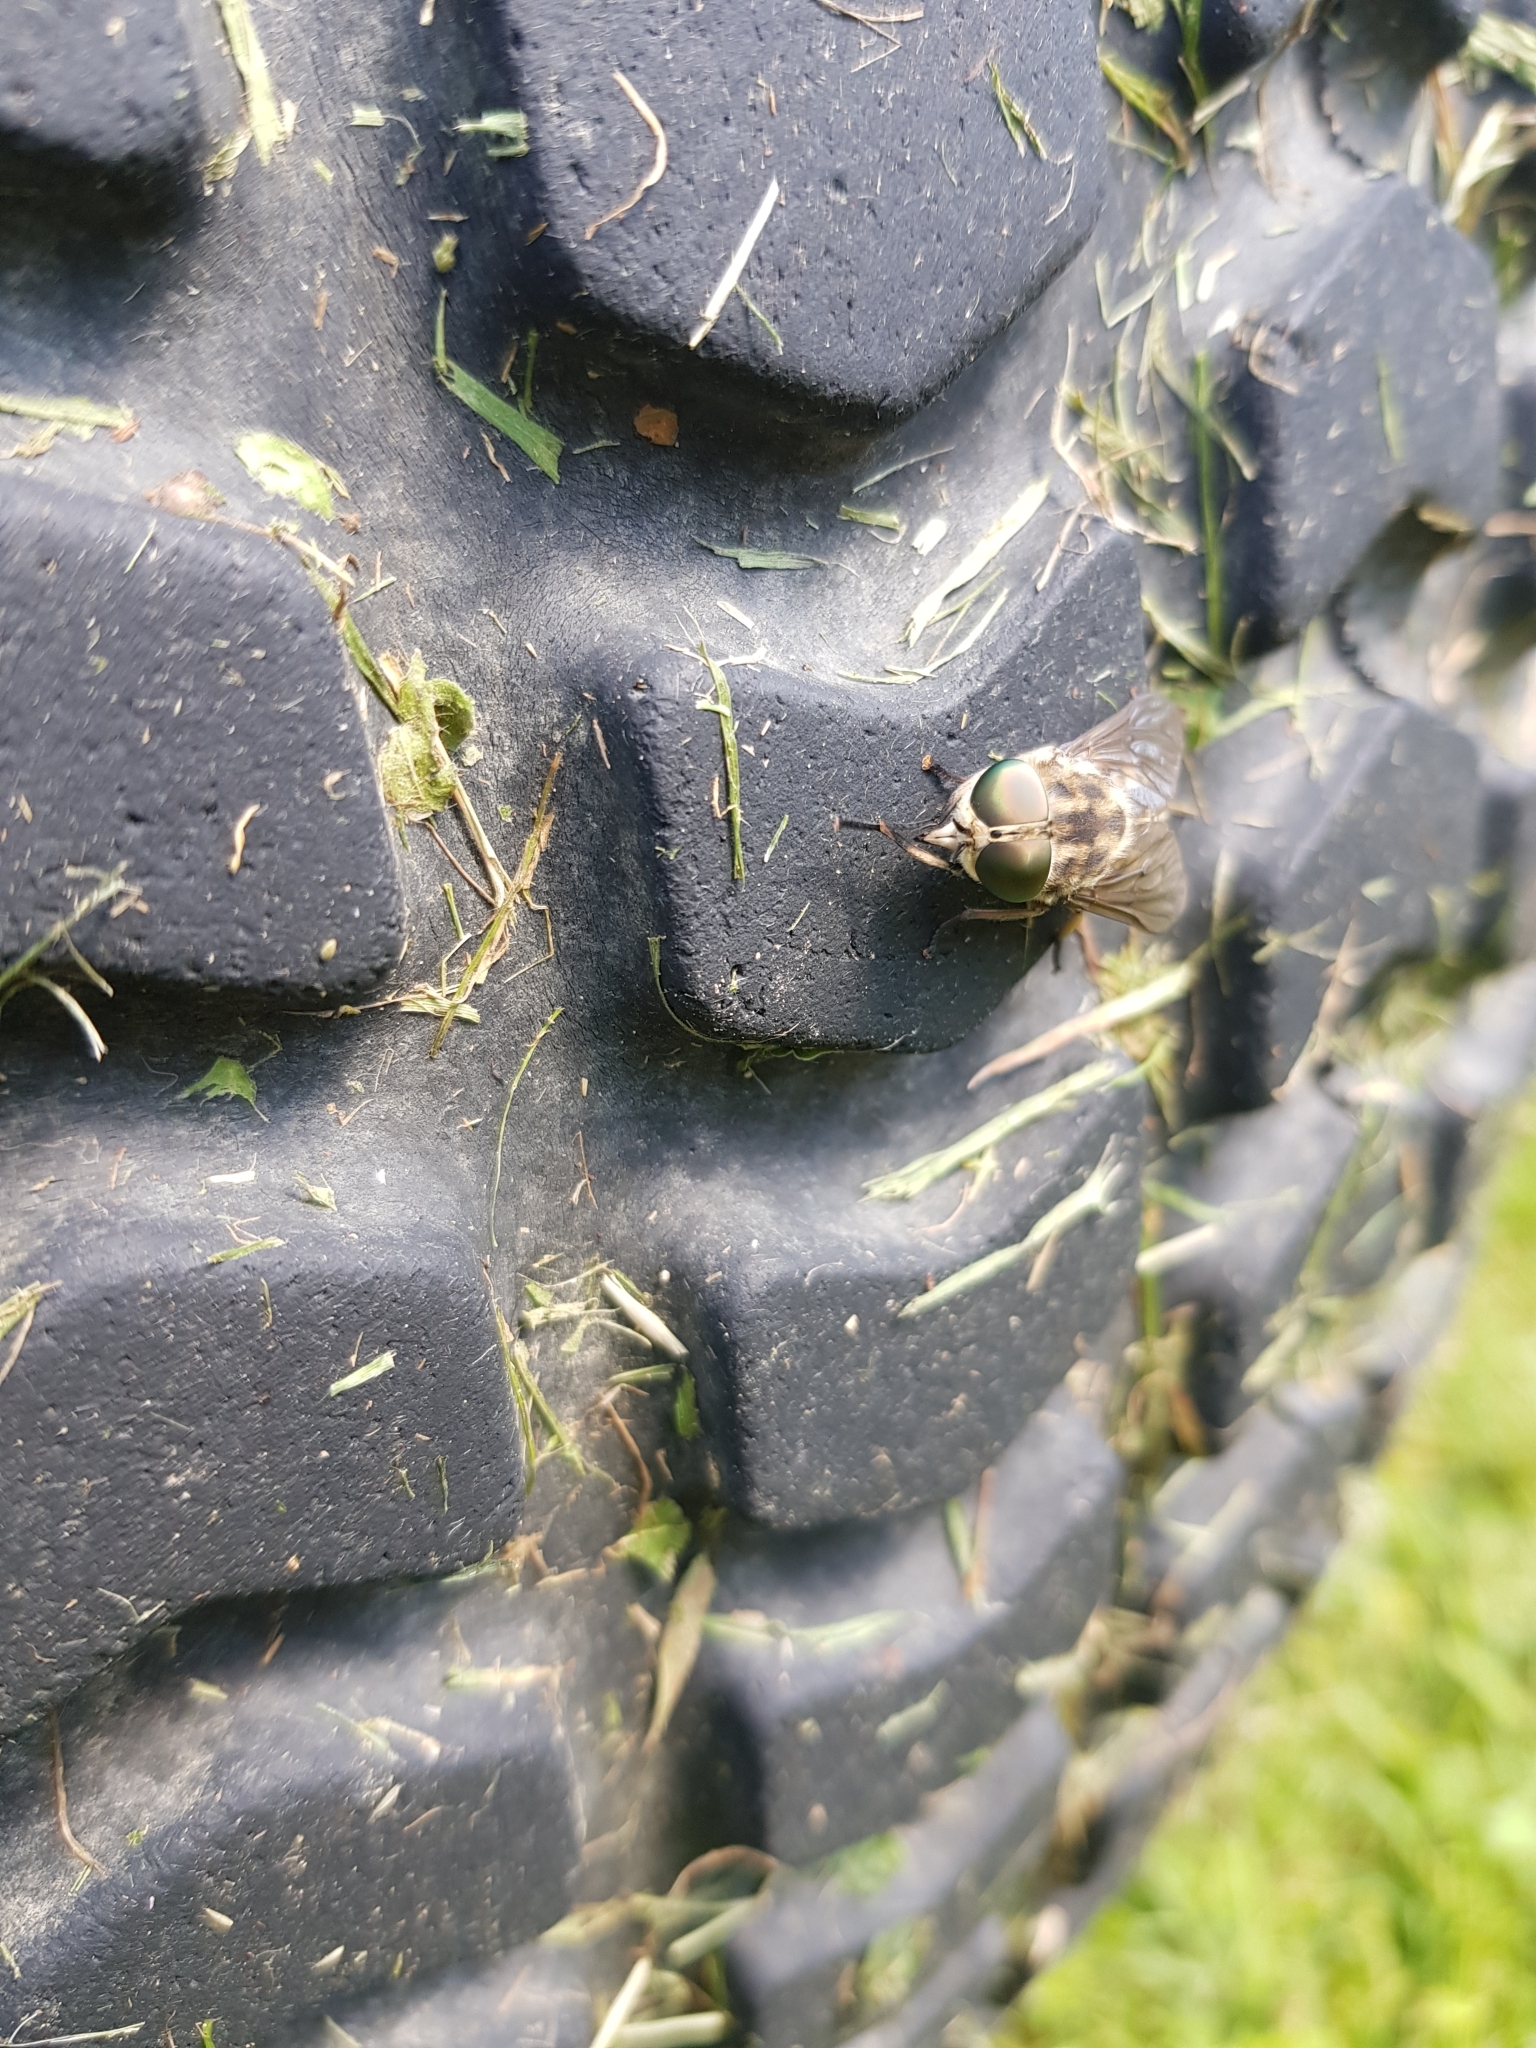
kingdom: Animalia
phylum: Arthropoda
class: Insecta
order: Diptera
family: Tabanidae
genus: Tabanus
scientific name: Tabanus autumnalis
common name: Large marsh horsefly
